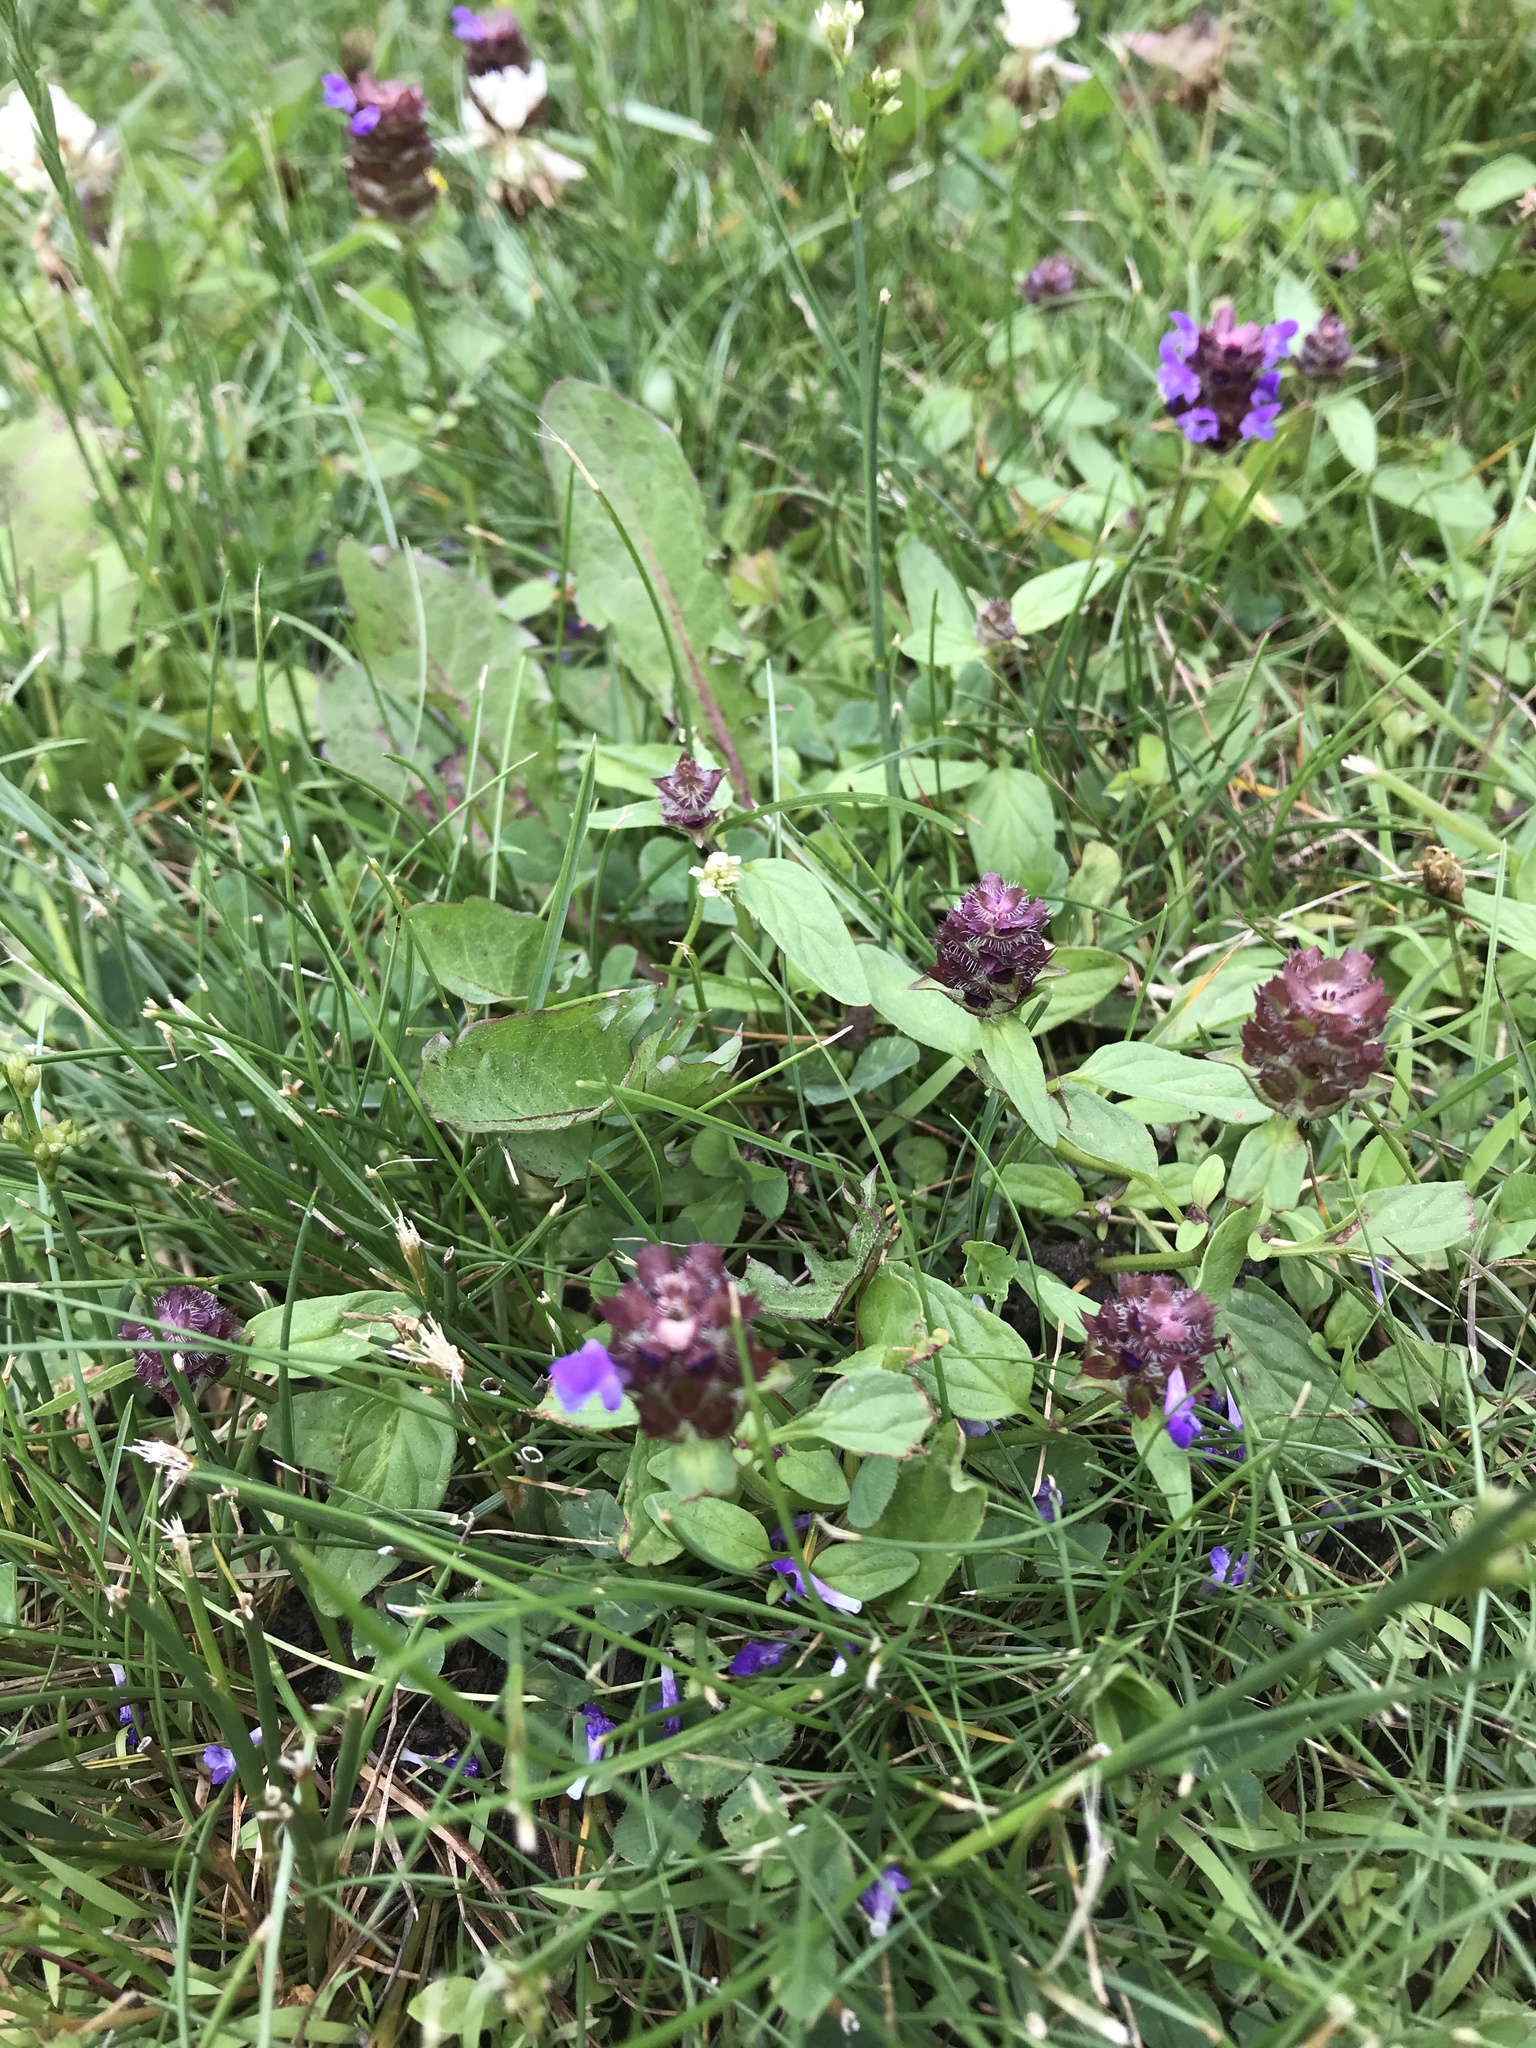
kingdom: Plantae
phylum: Tracheophyta
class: Magnoliopsida
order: Lamiales
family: Lamiaceae
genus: Prunella
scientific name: Prunella vulgaris
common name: Heal-all
